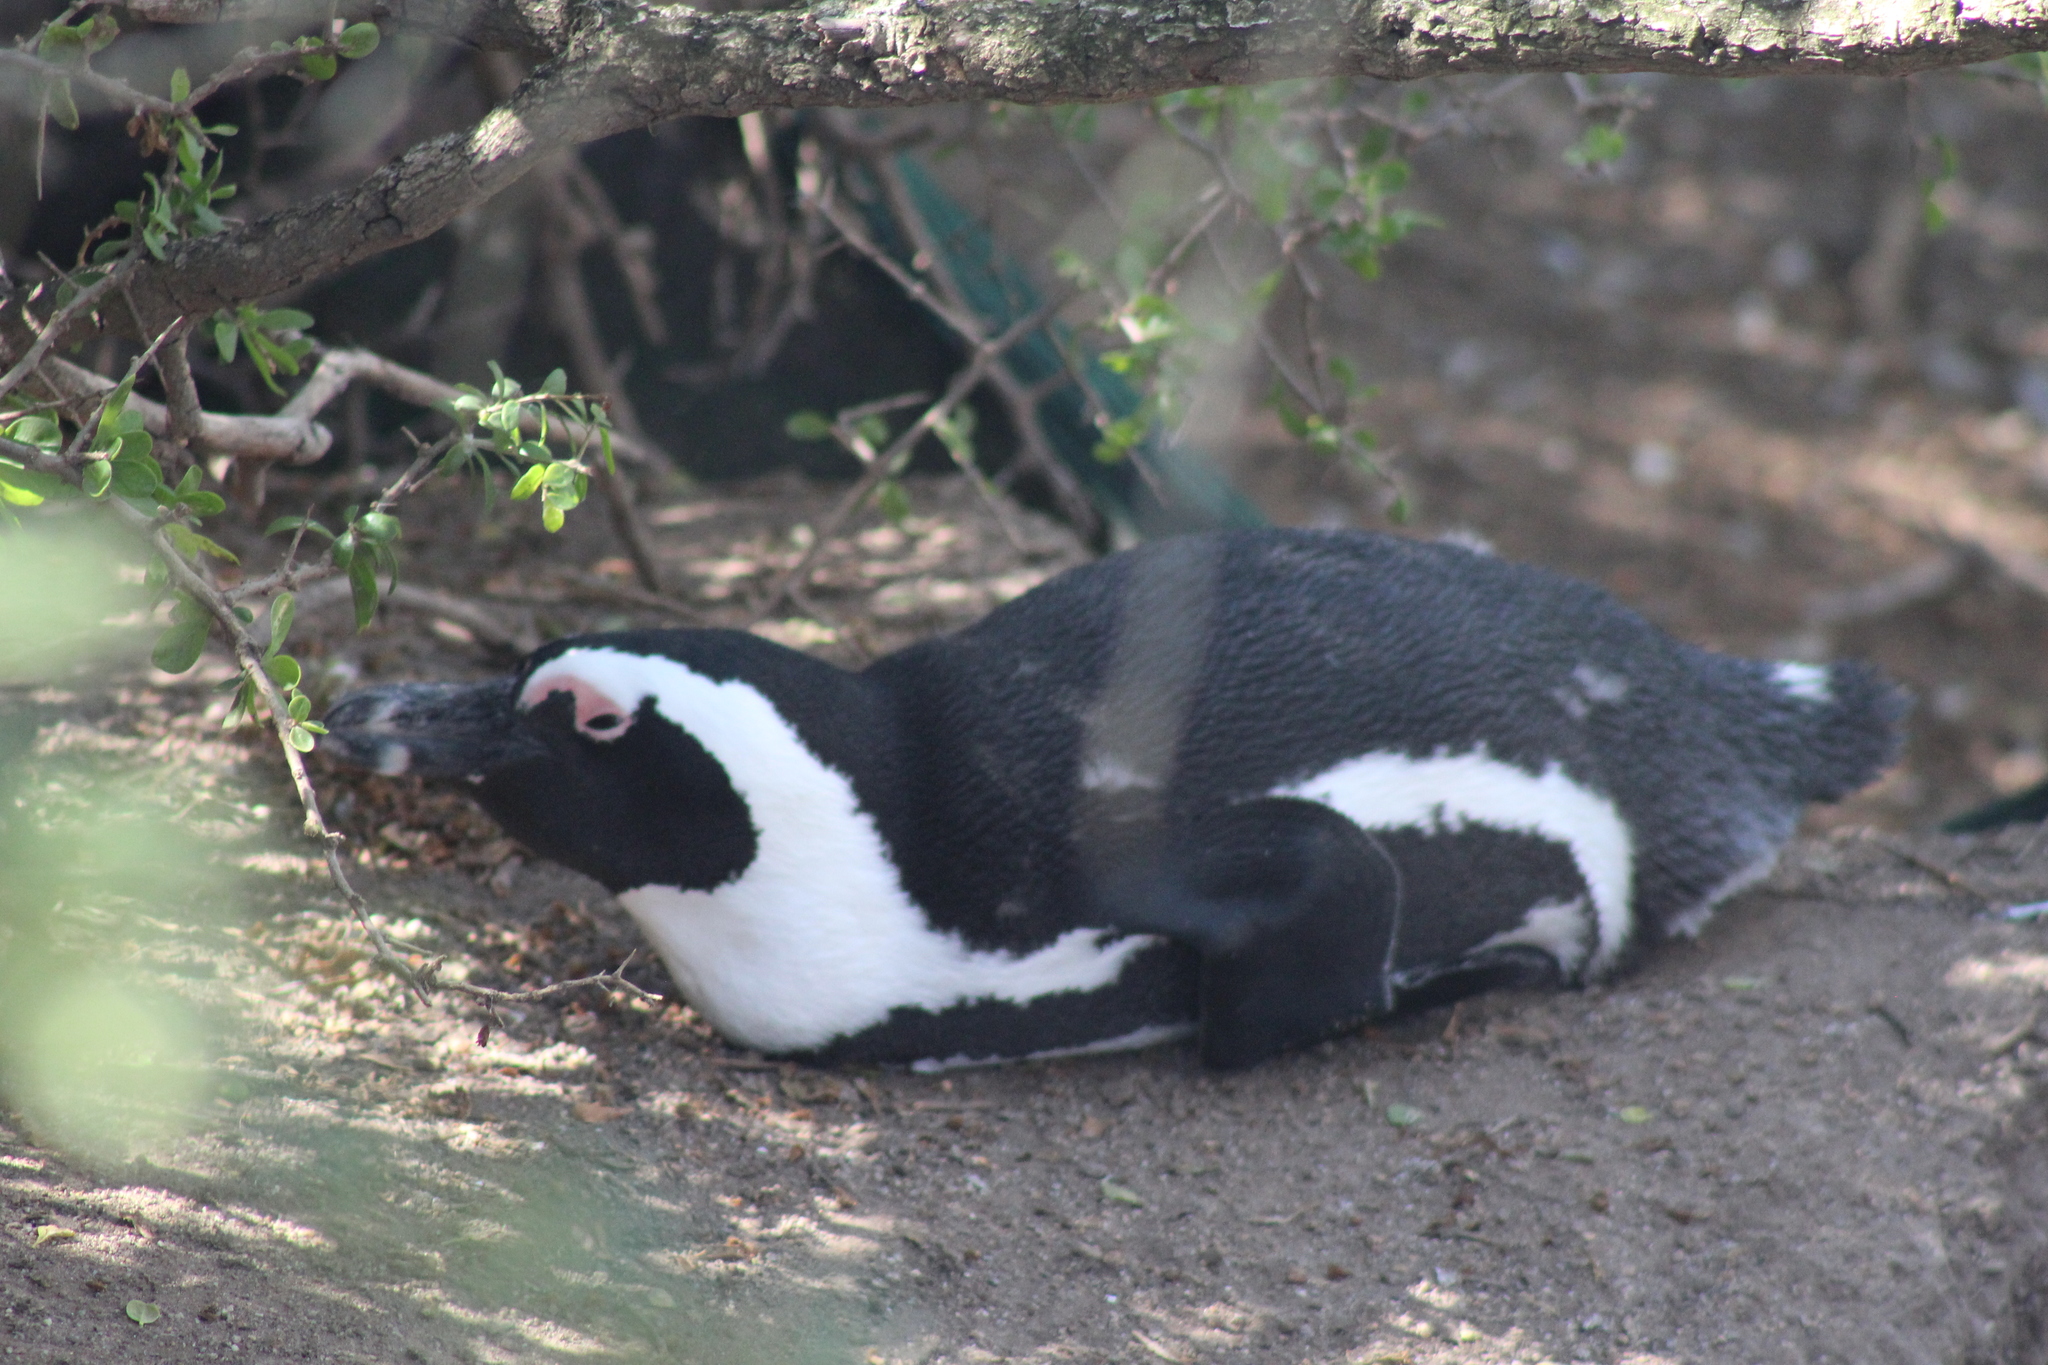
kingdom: Animalia
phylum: Chordata
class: Aves
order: Sphenisciformes
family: Spheniscidae
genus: Spheniscus
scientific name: Spheniscus demersus
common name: African penguin
